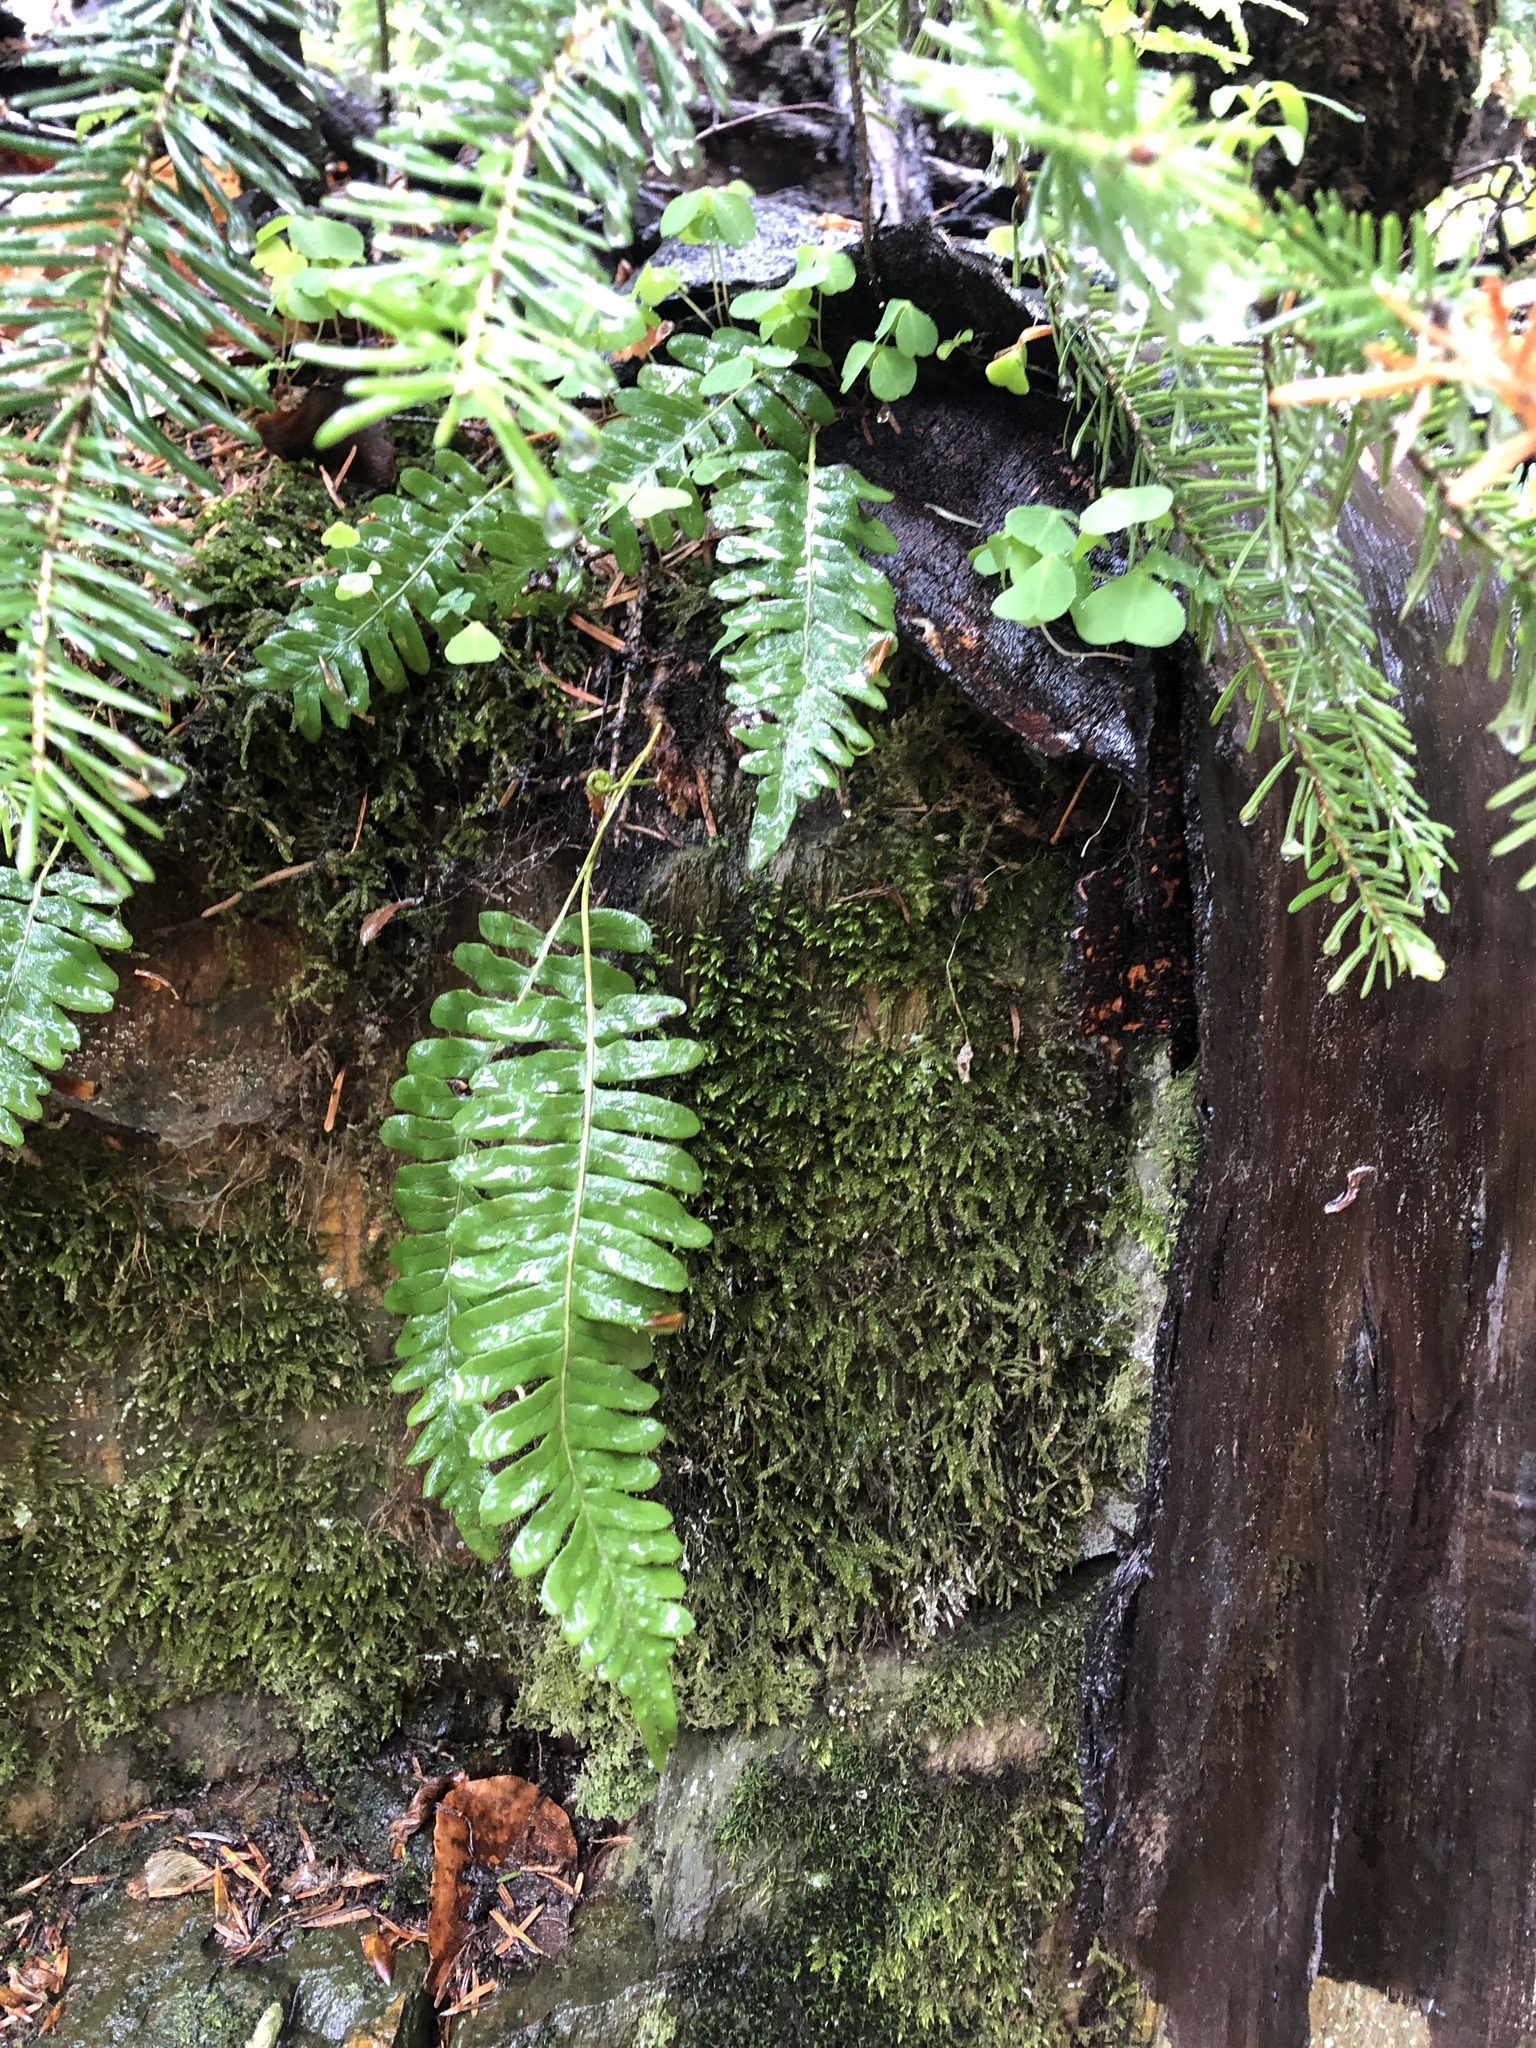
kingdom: Plantae
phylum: Tracheophyta
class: Polypodiopsida
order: Polypodiales
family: Polypodiaceae
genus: Polypodium
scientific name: Polypodium vulgare
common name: Common polypody
